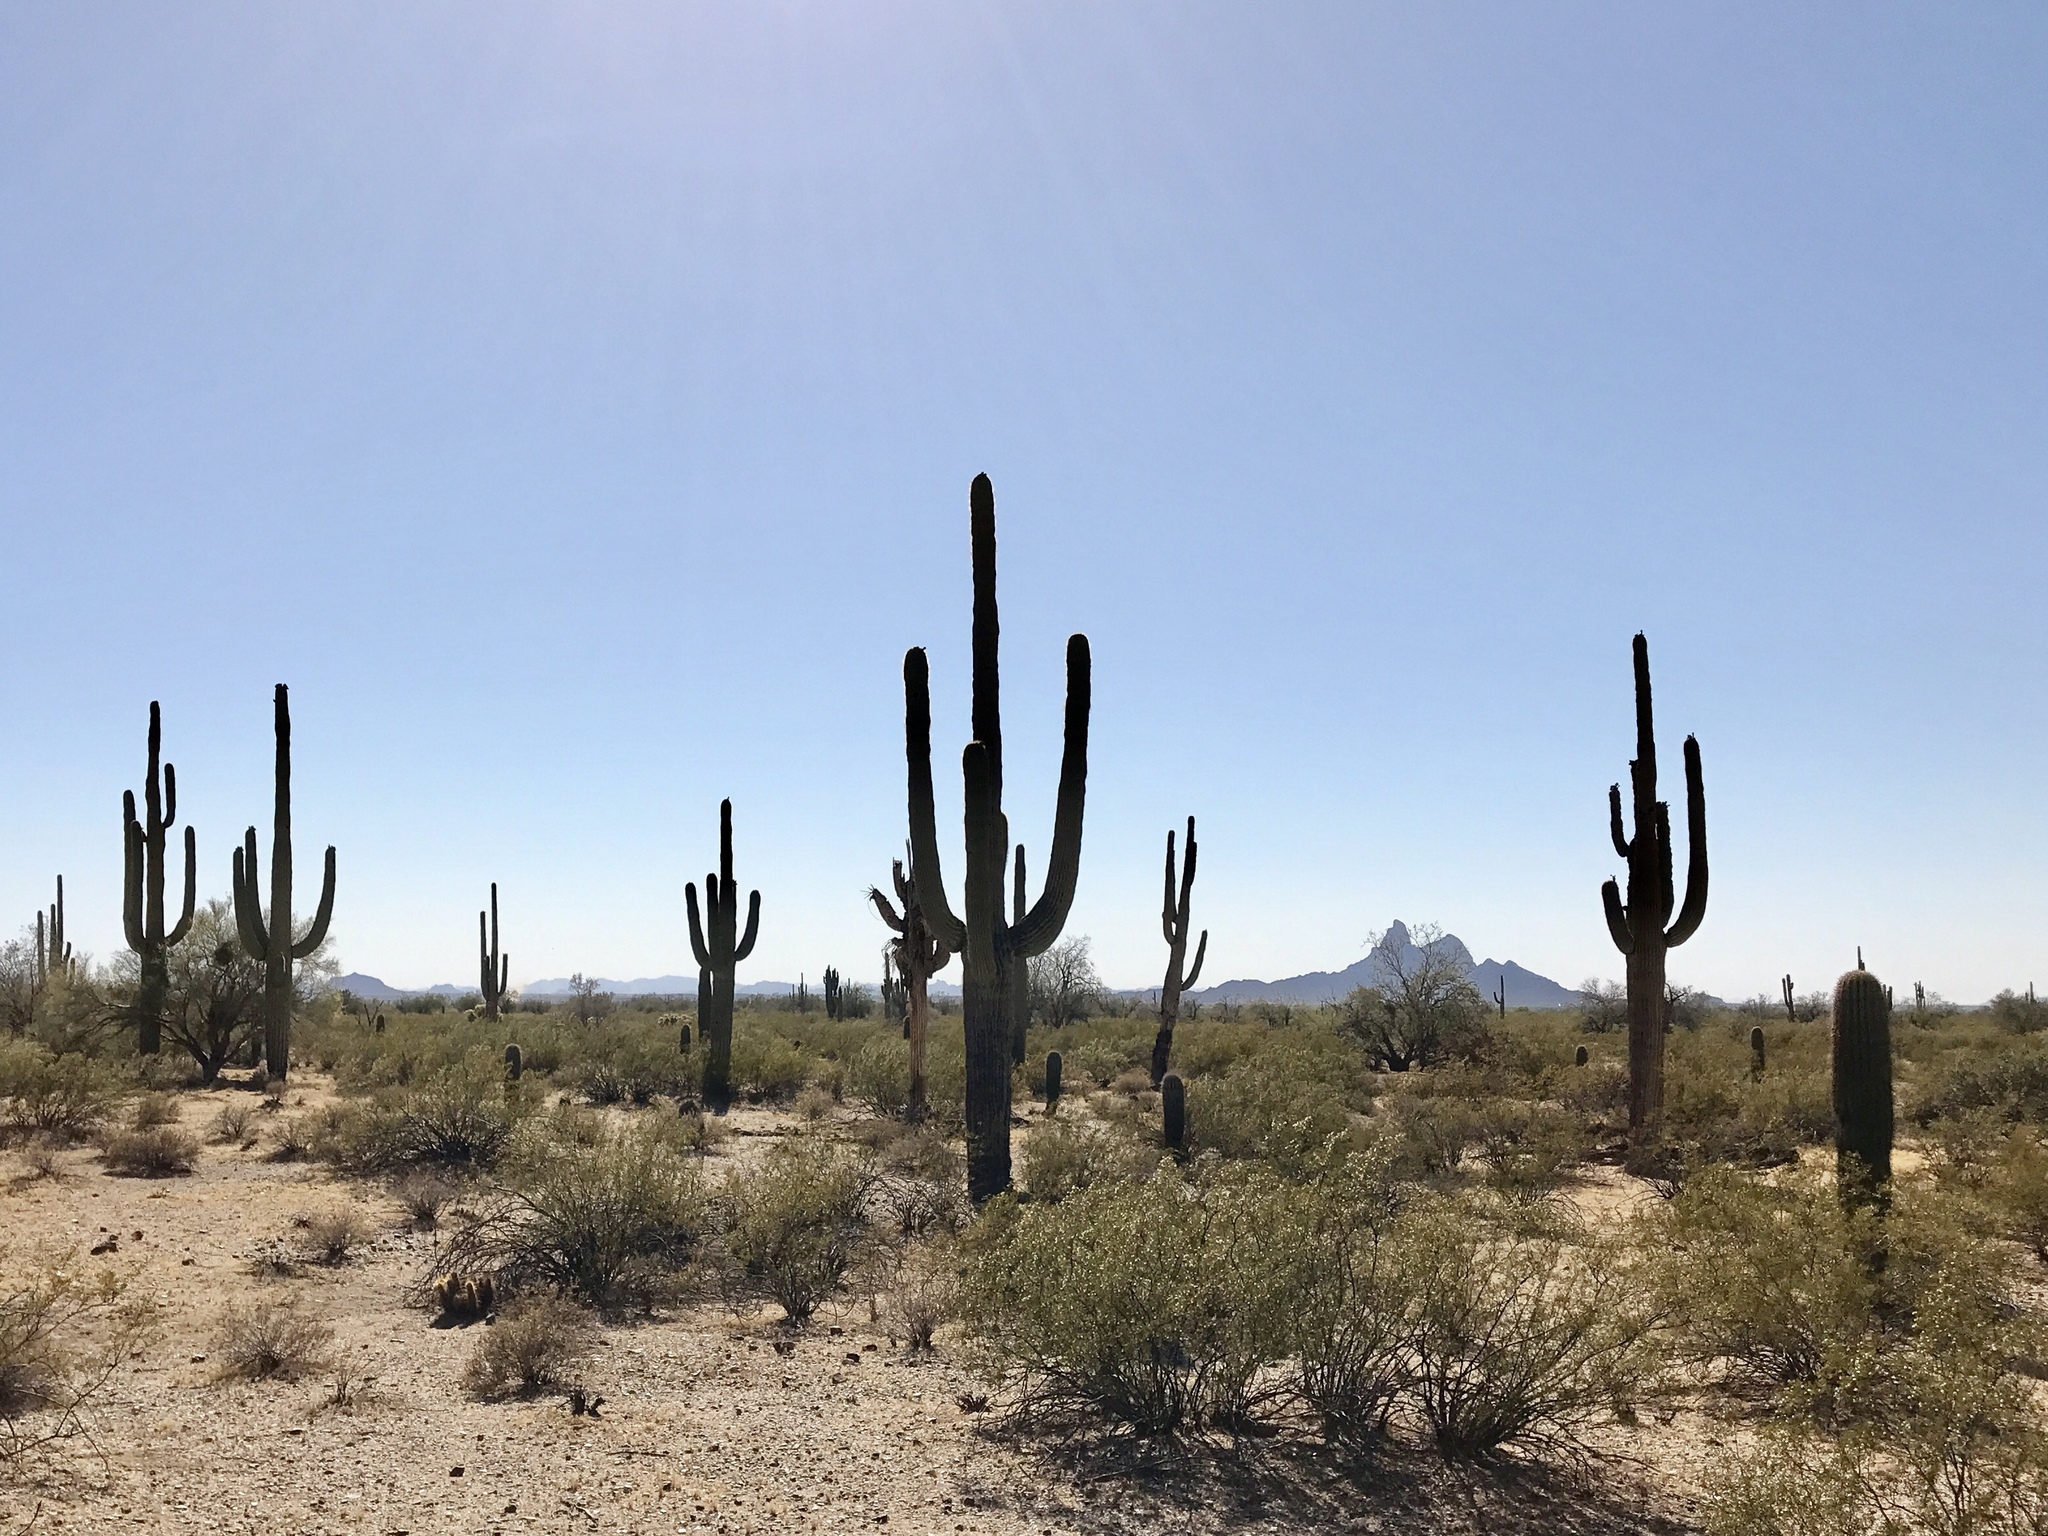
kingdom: Plantae
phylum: Tracheophyta
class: Magnoliopsida
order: Caryophyllales
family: Cactaceae
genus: Carnegiea
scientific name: Carnegiea gigantea
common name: Saguaro
